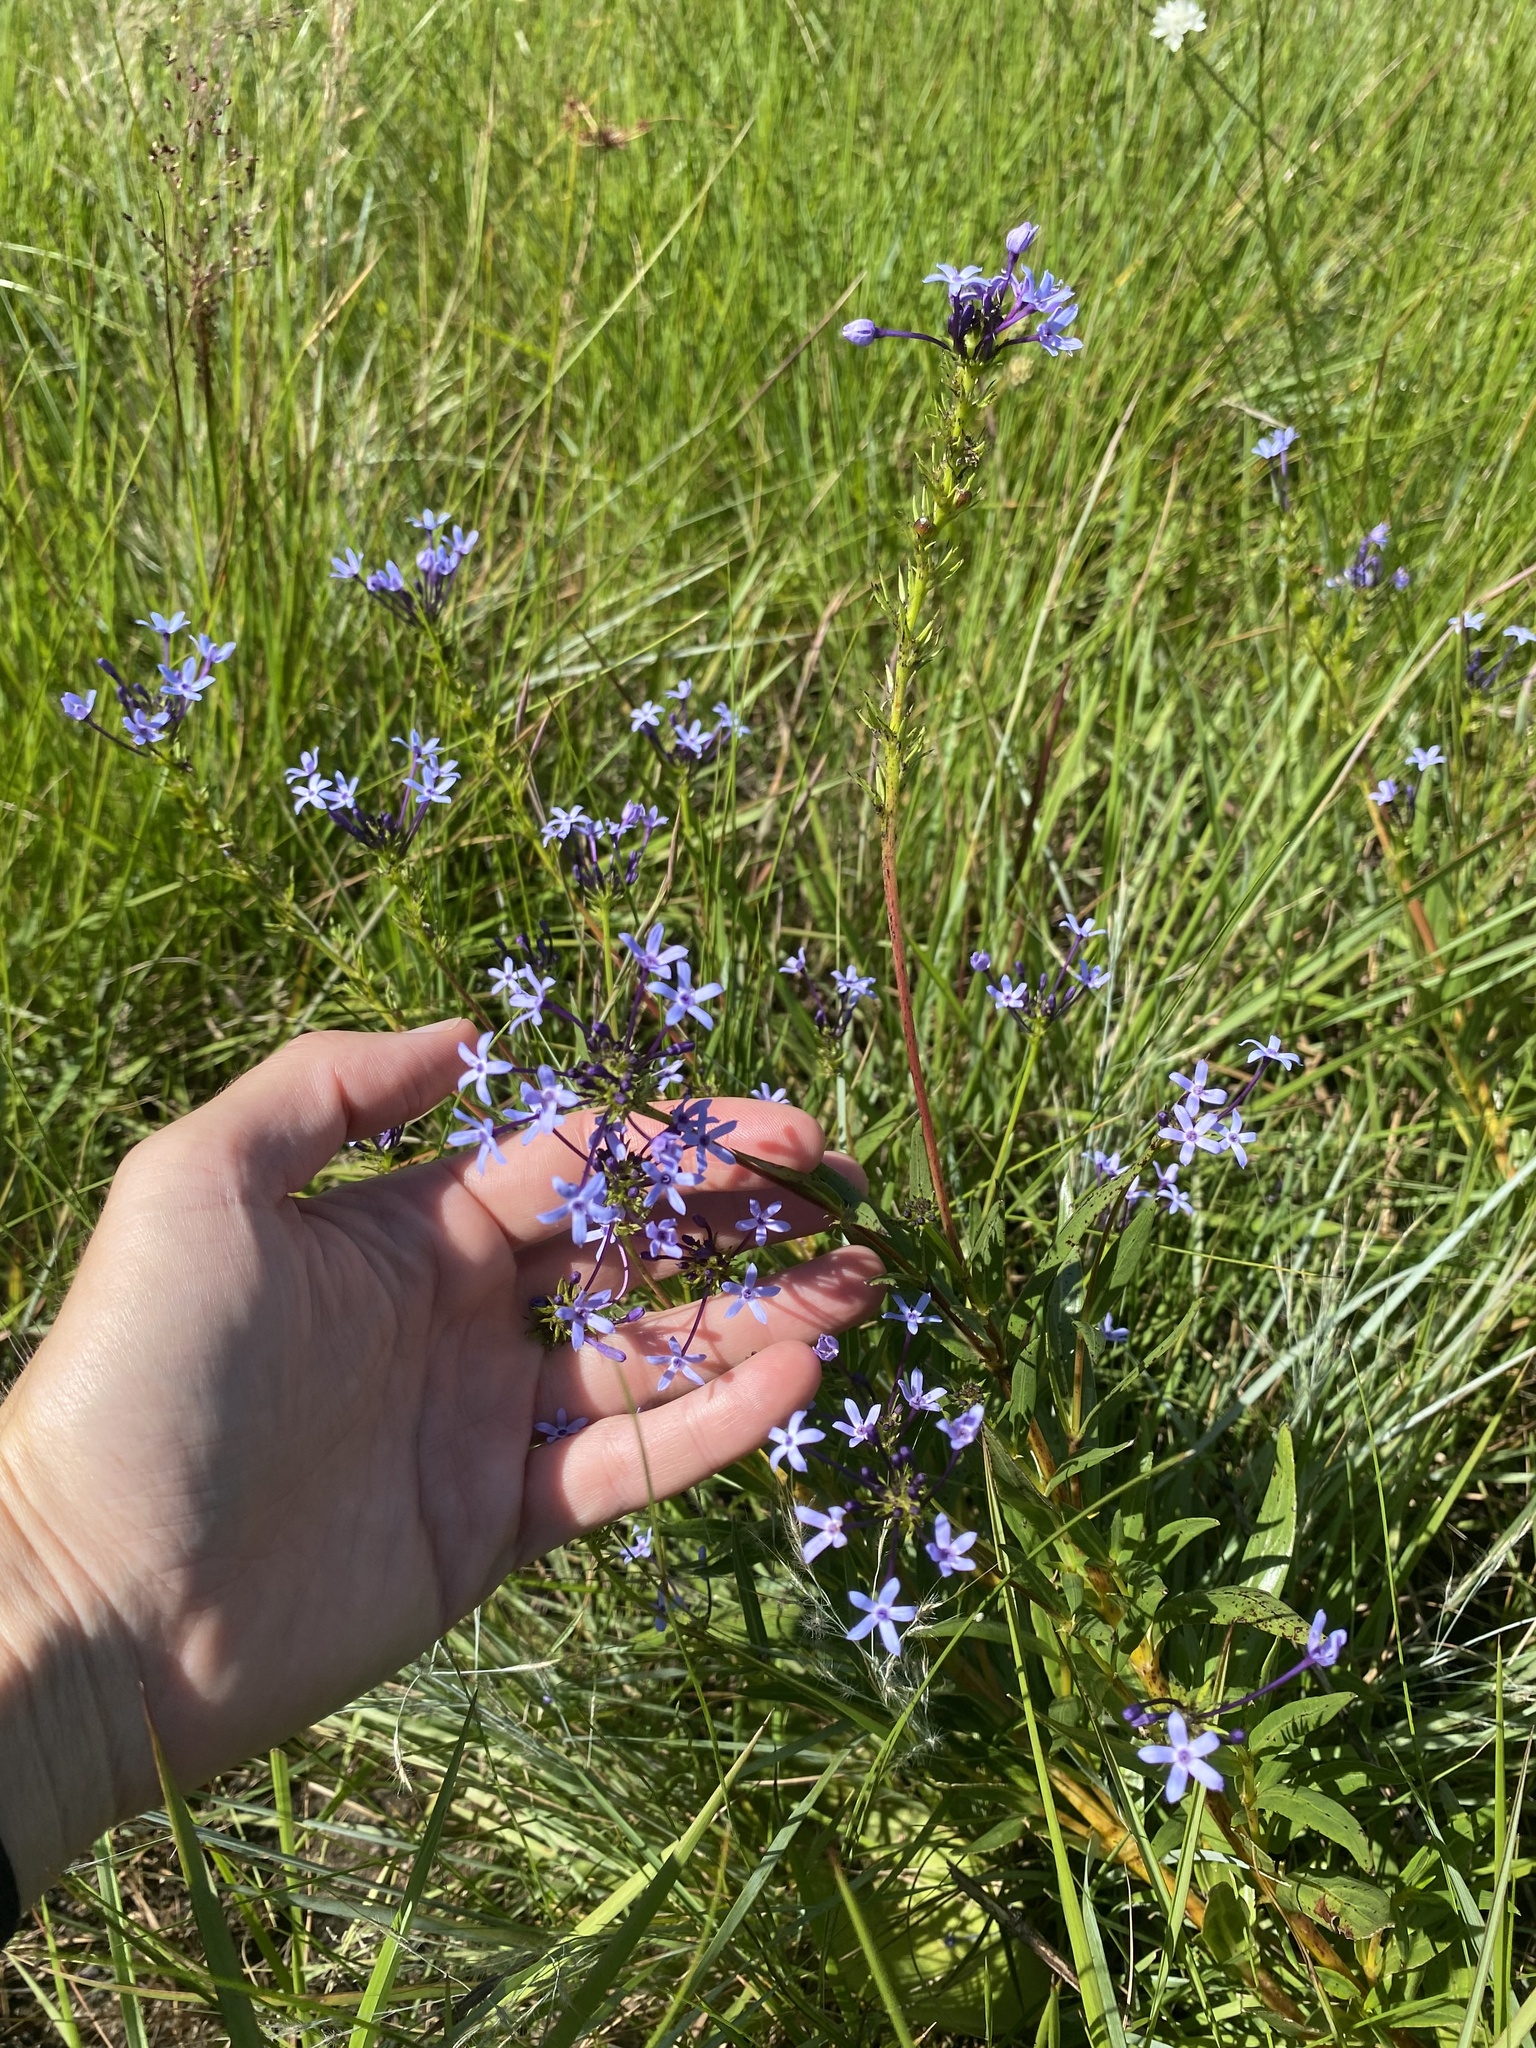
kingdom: Plantae
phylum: Tracheophyta
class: Magnoliopsida
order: Gentianales
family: Rubiaceae
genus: Pentanisia
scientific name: Pentanisia angustifolia
